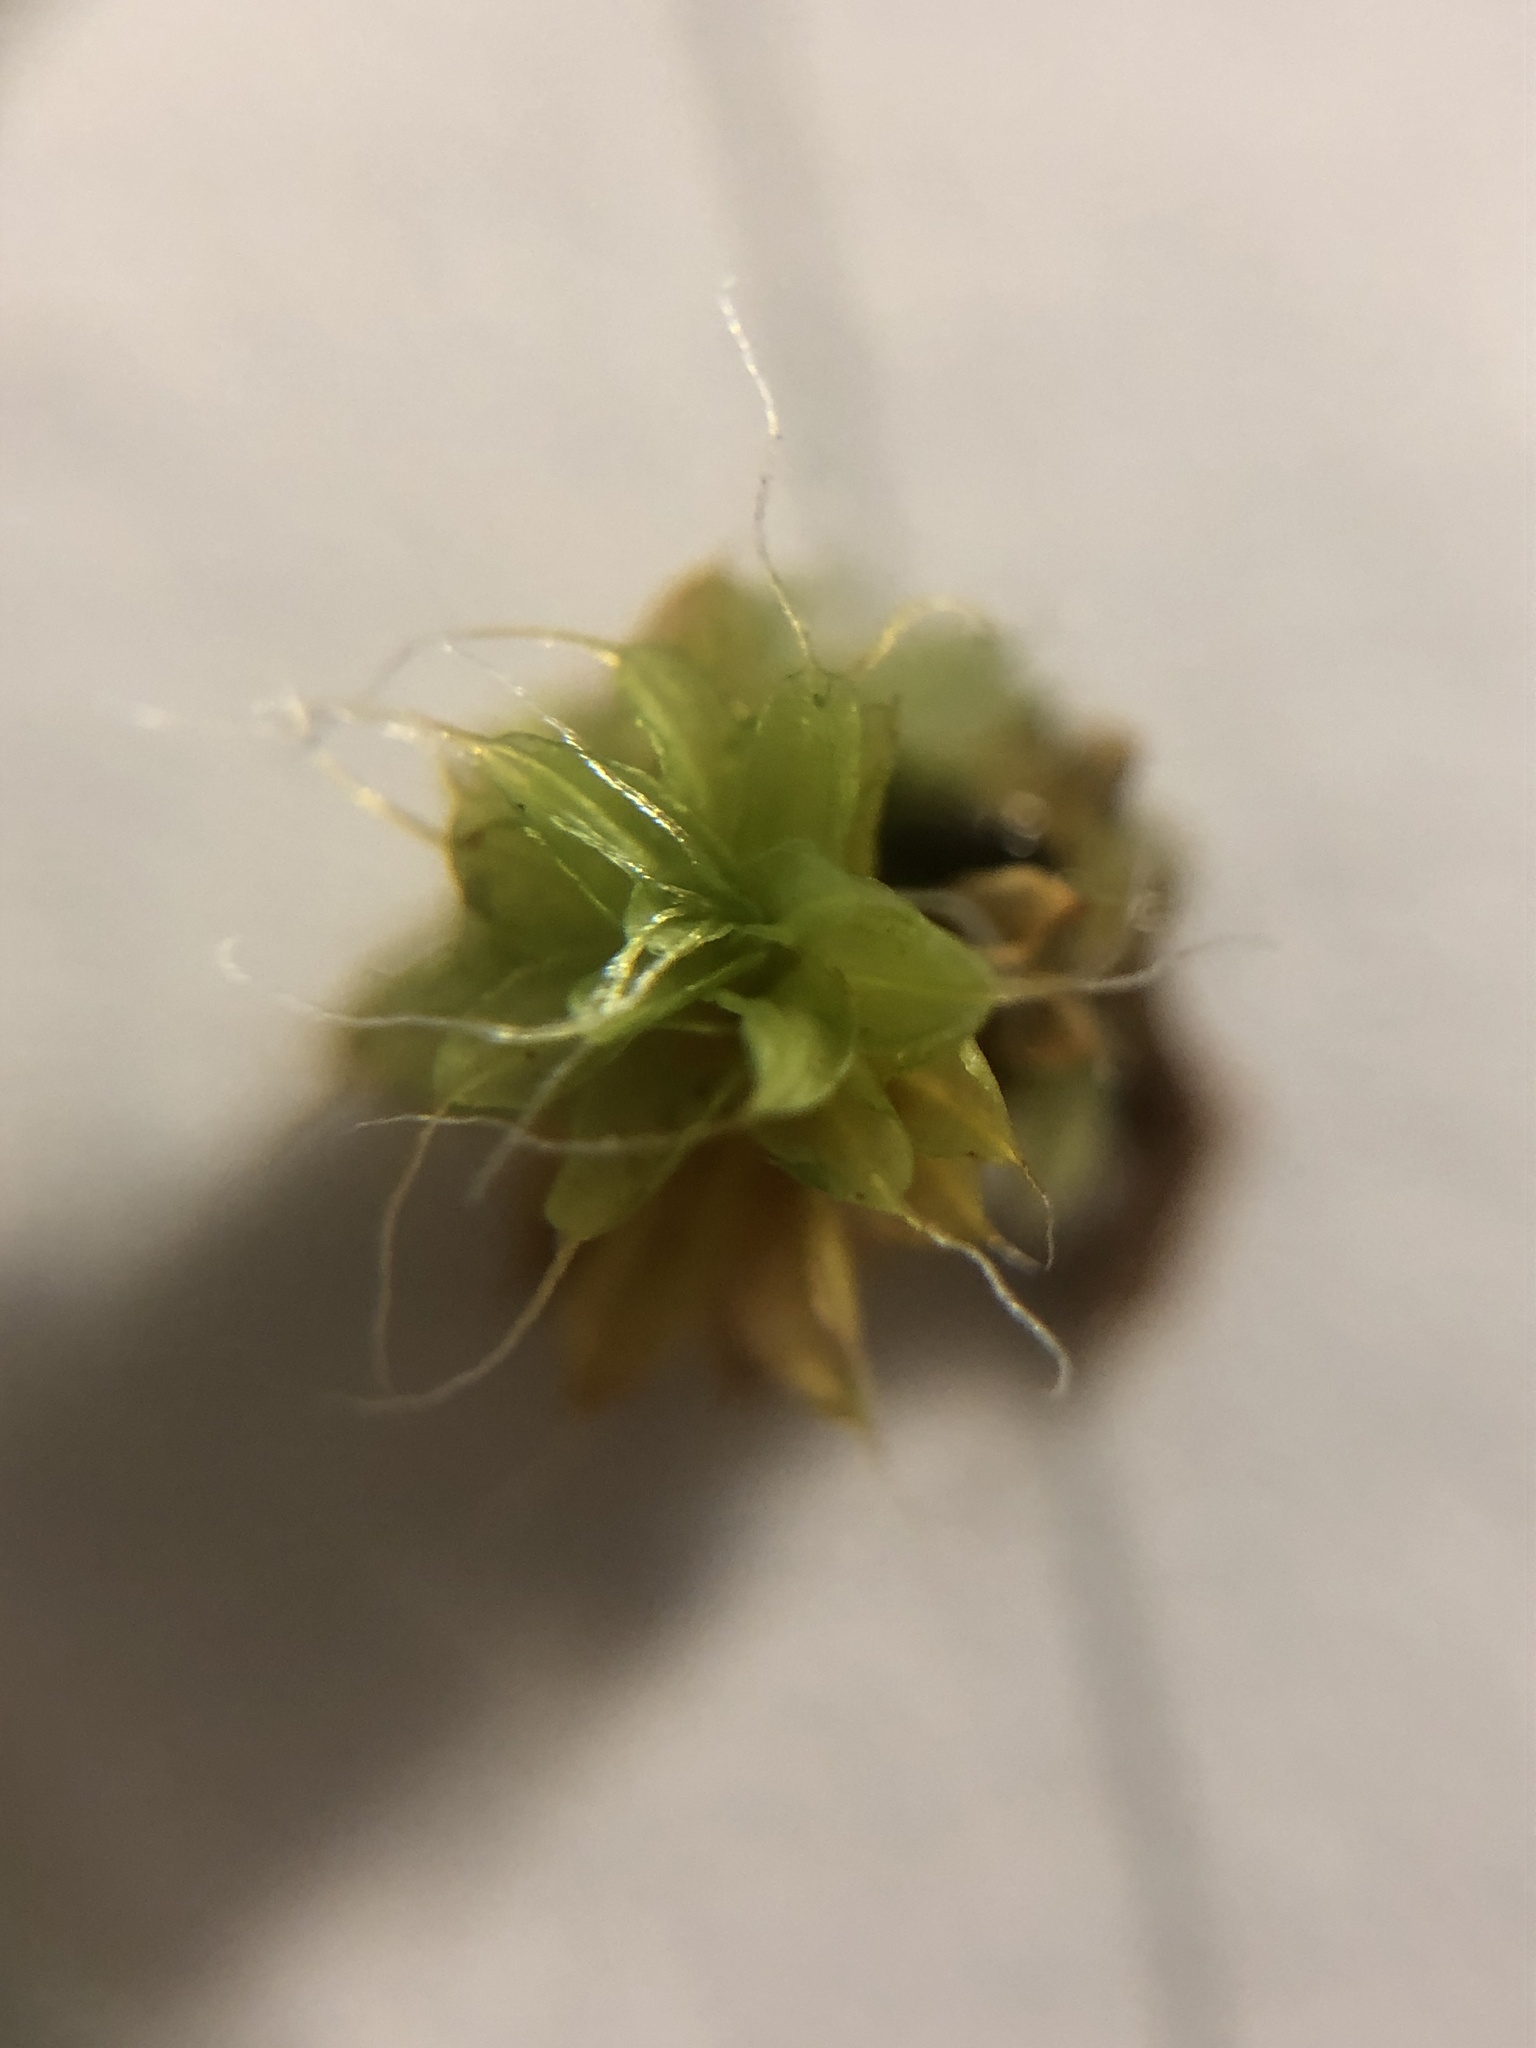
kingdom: Plantae
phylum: Bryophyta
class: Bryopsida
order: Pottiales
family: Pottiaceae
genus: Syntrichia
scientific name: Syntrichia ruralis
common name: Sidewalk screw moss
